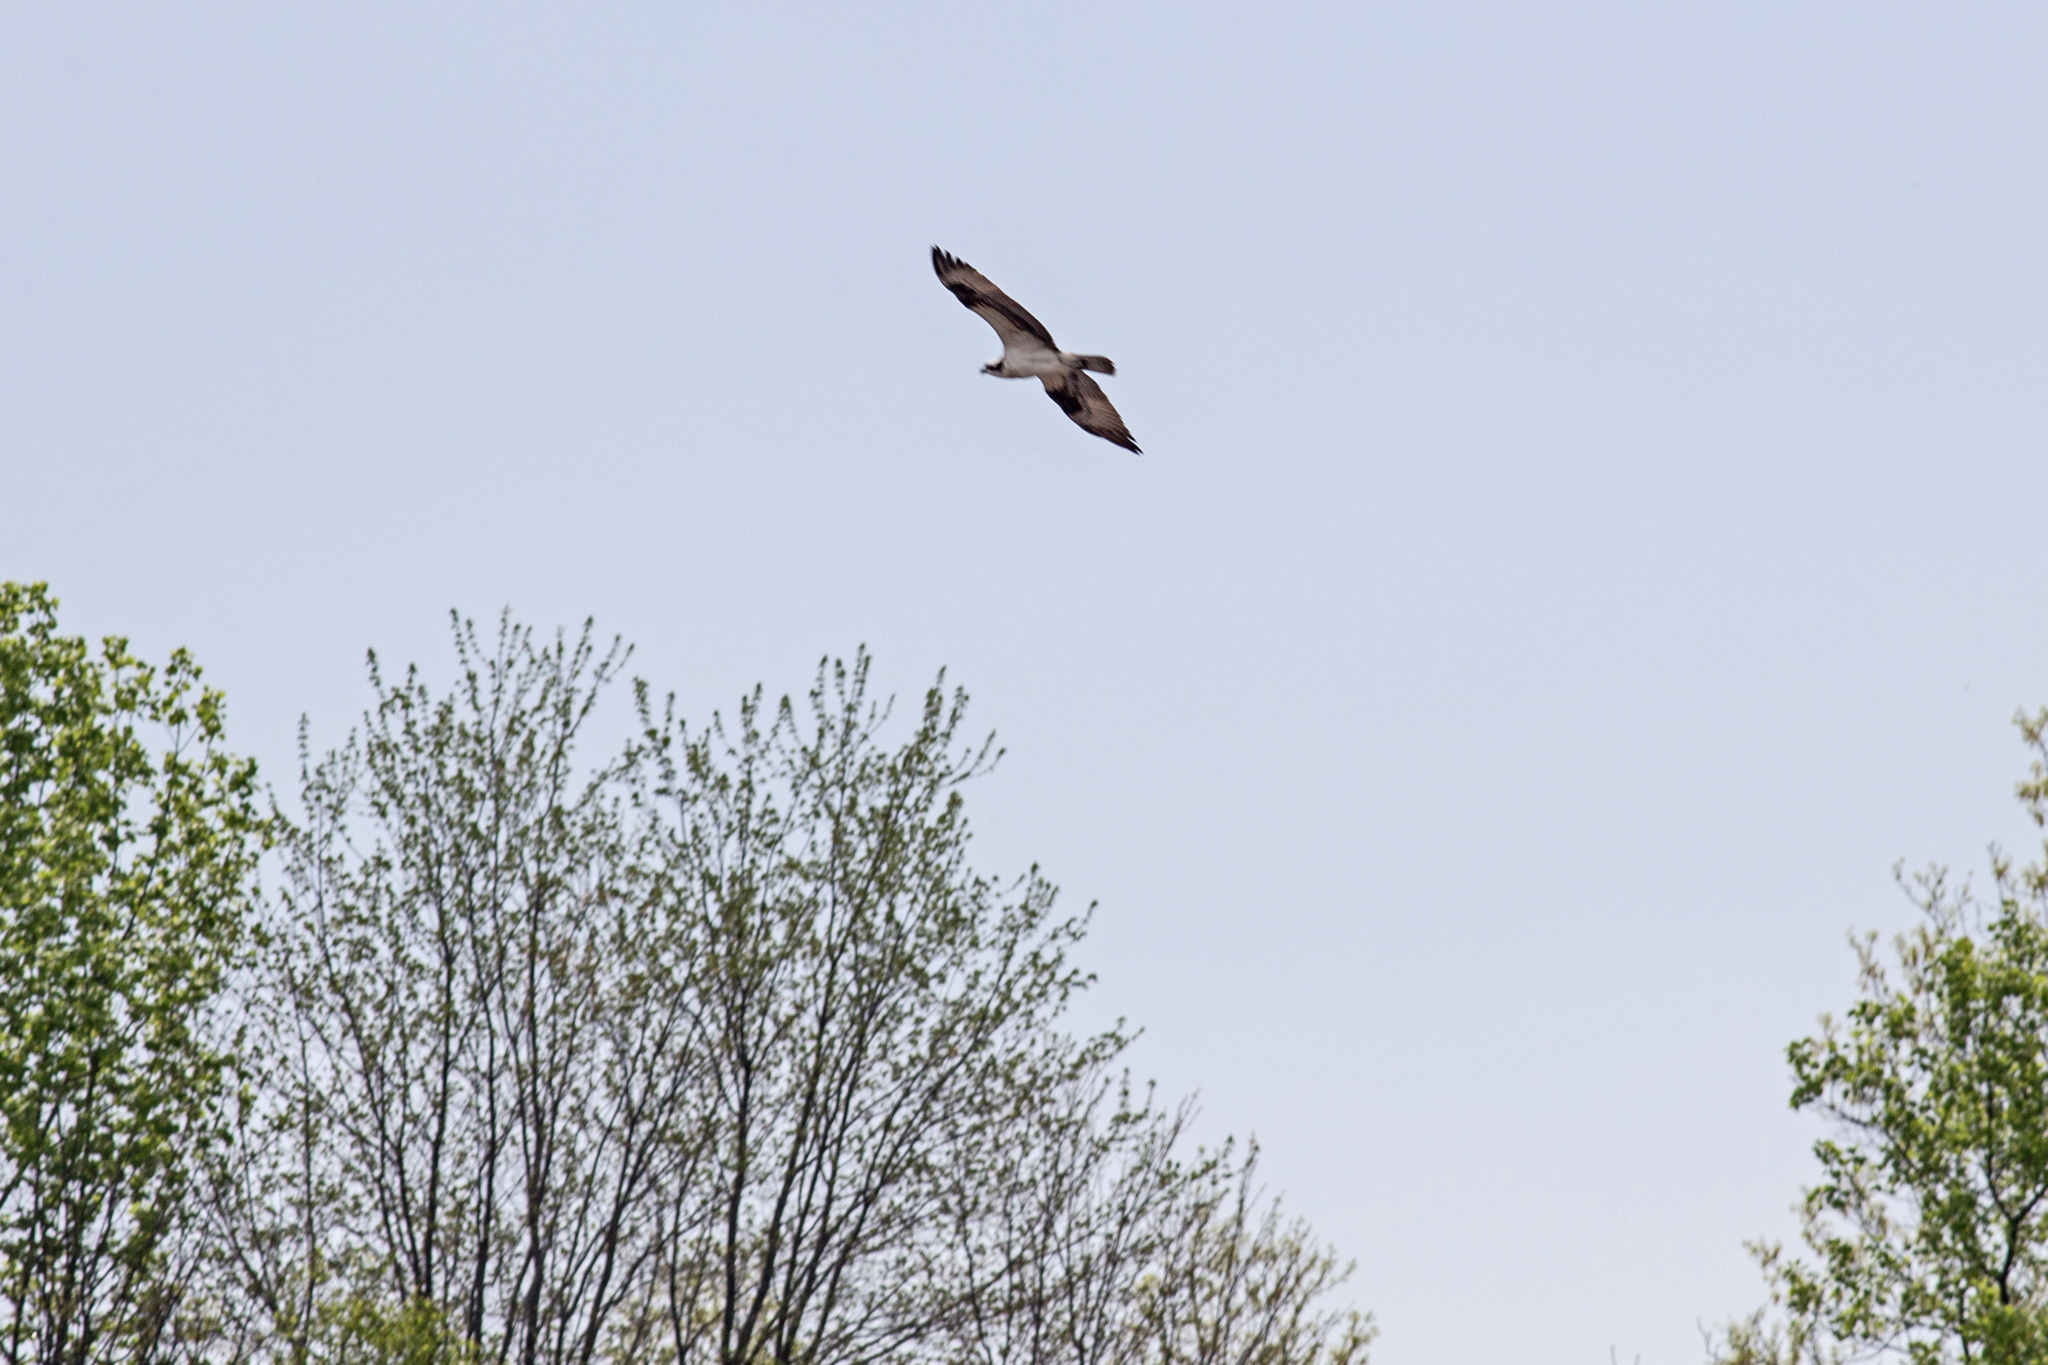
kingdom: Animalia
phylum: Chordata
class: Aves
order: Accipitriformes
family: Pandionidae
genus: Pandion
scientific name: Pandion haliaetus
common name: Osprey
